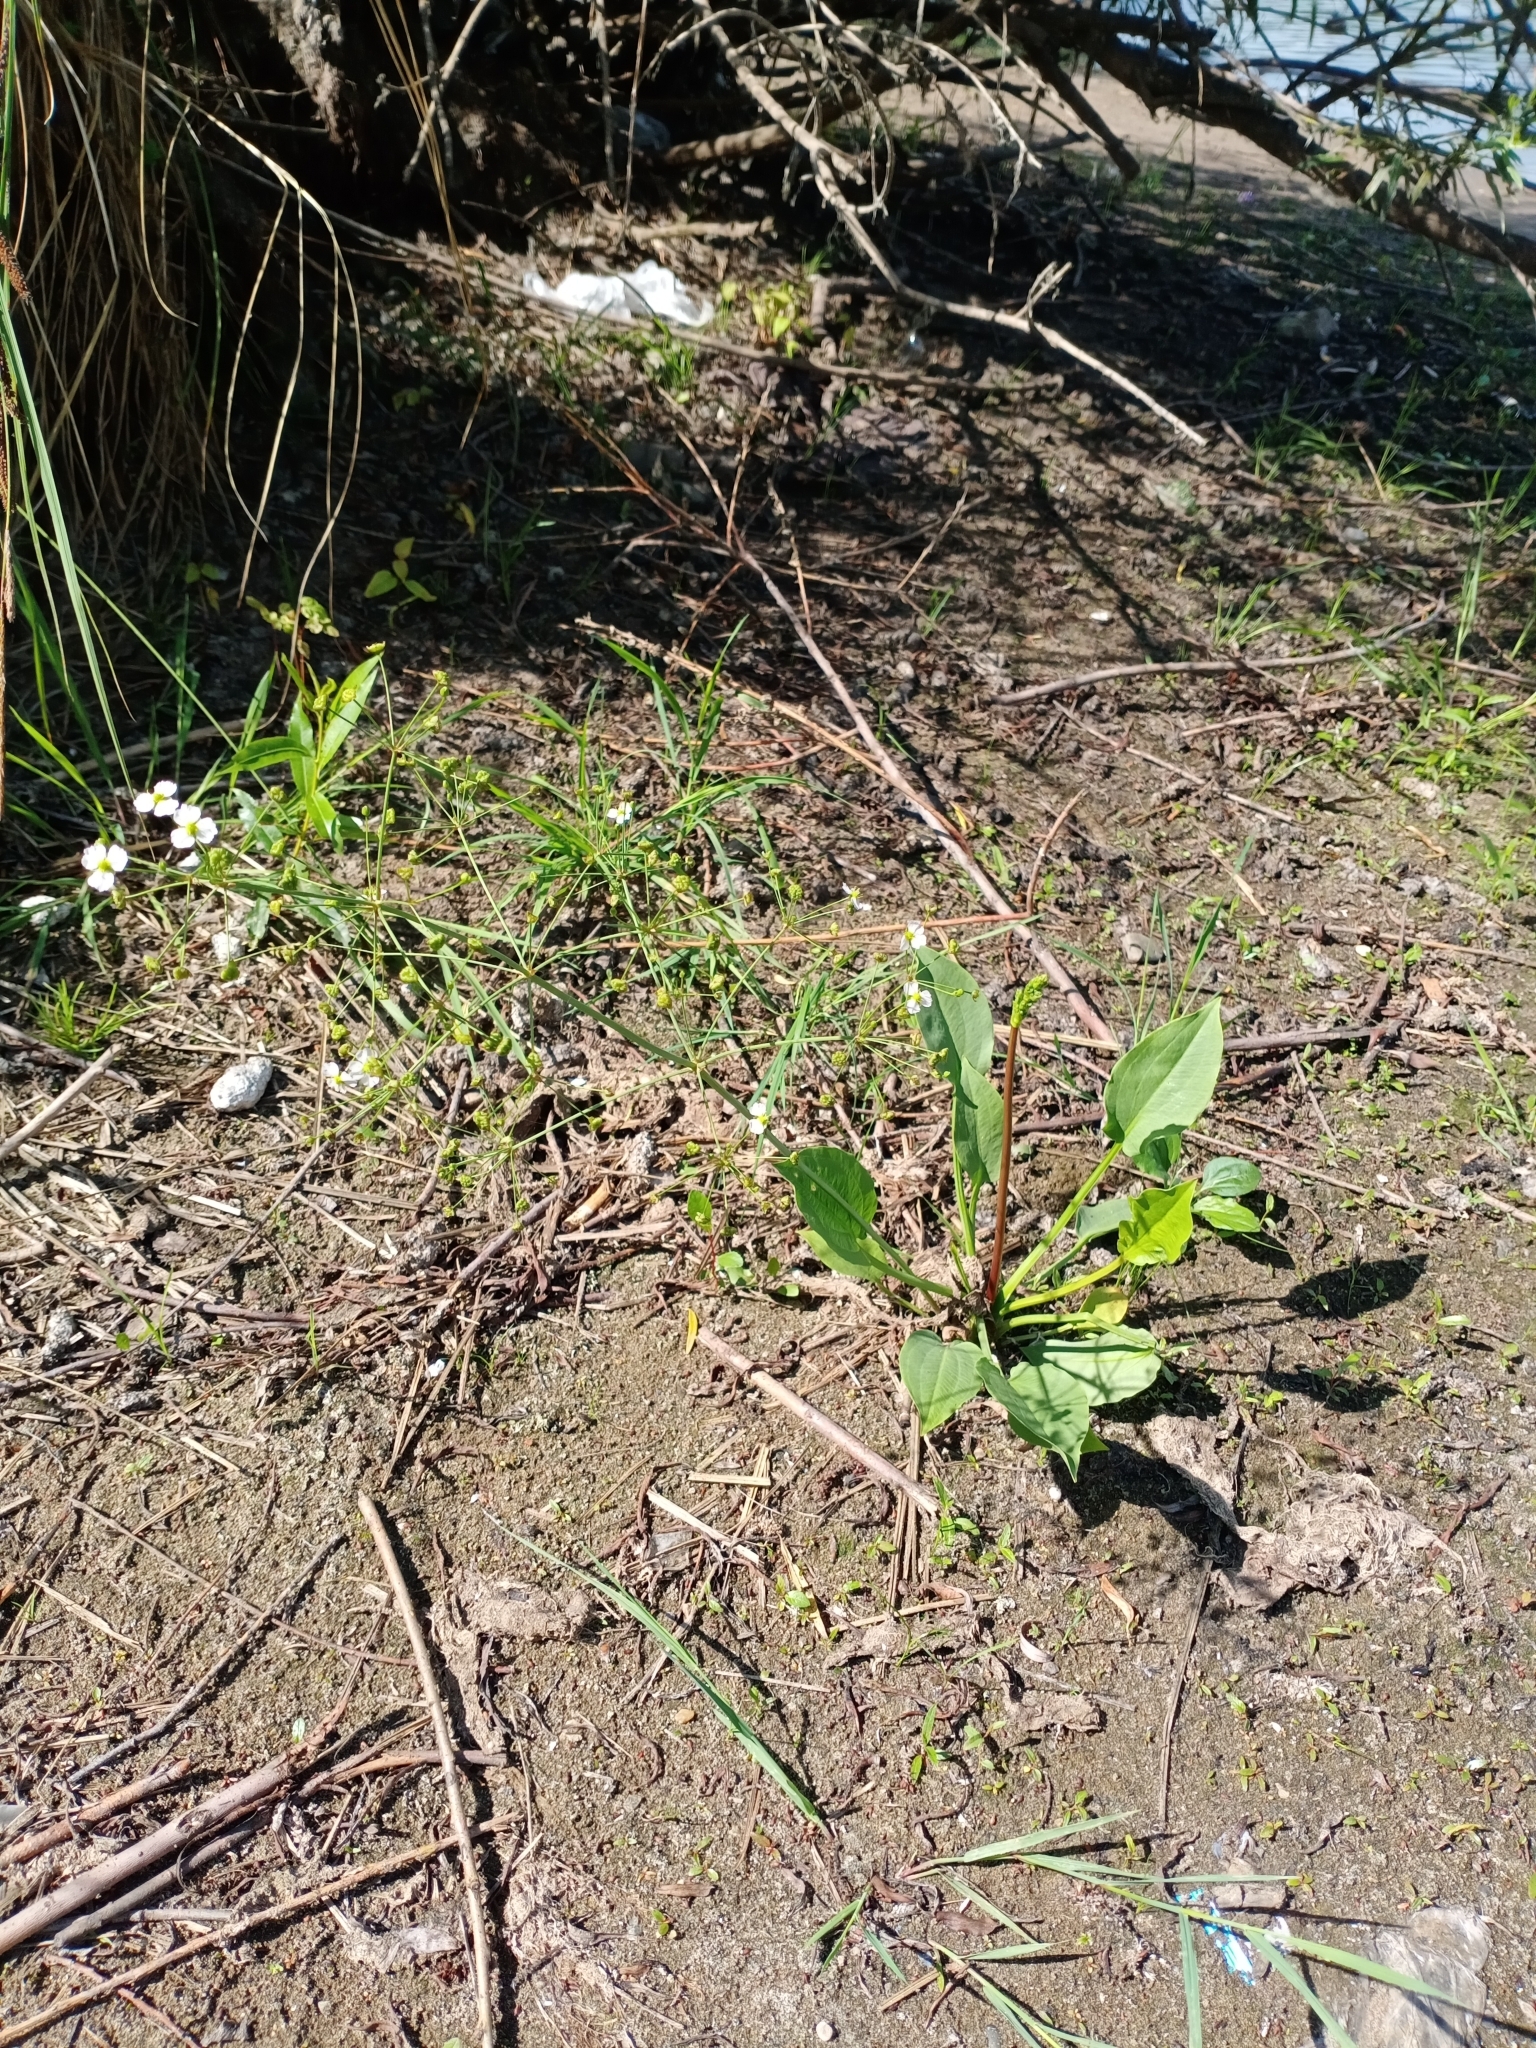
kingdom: Plantae
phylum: Tracheophyta
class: Liliopsida
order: Alismatales
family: Alismataceae
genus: Alisma
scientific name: Alisma plantago-aquatica
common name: Water-plantain
